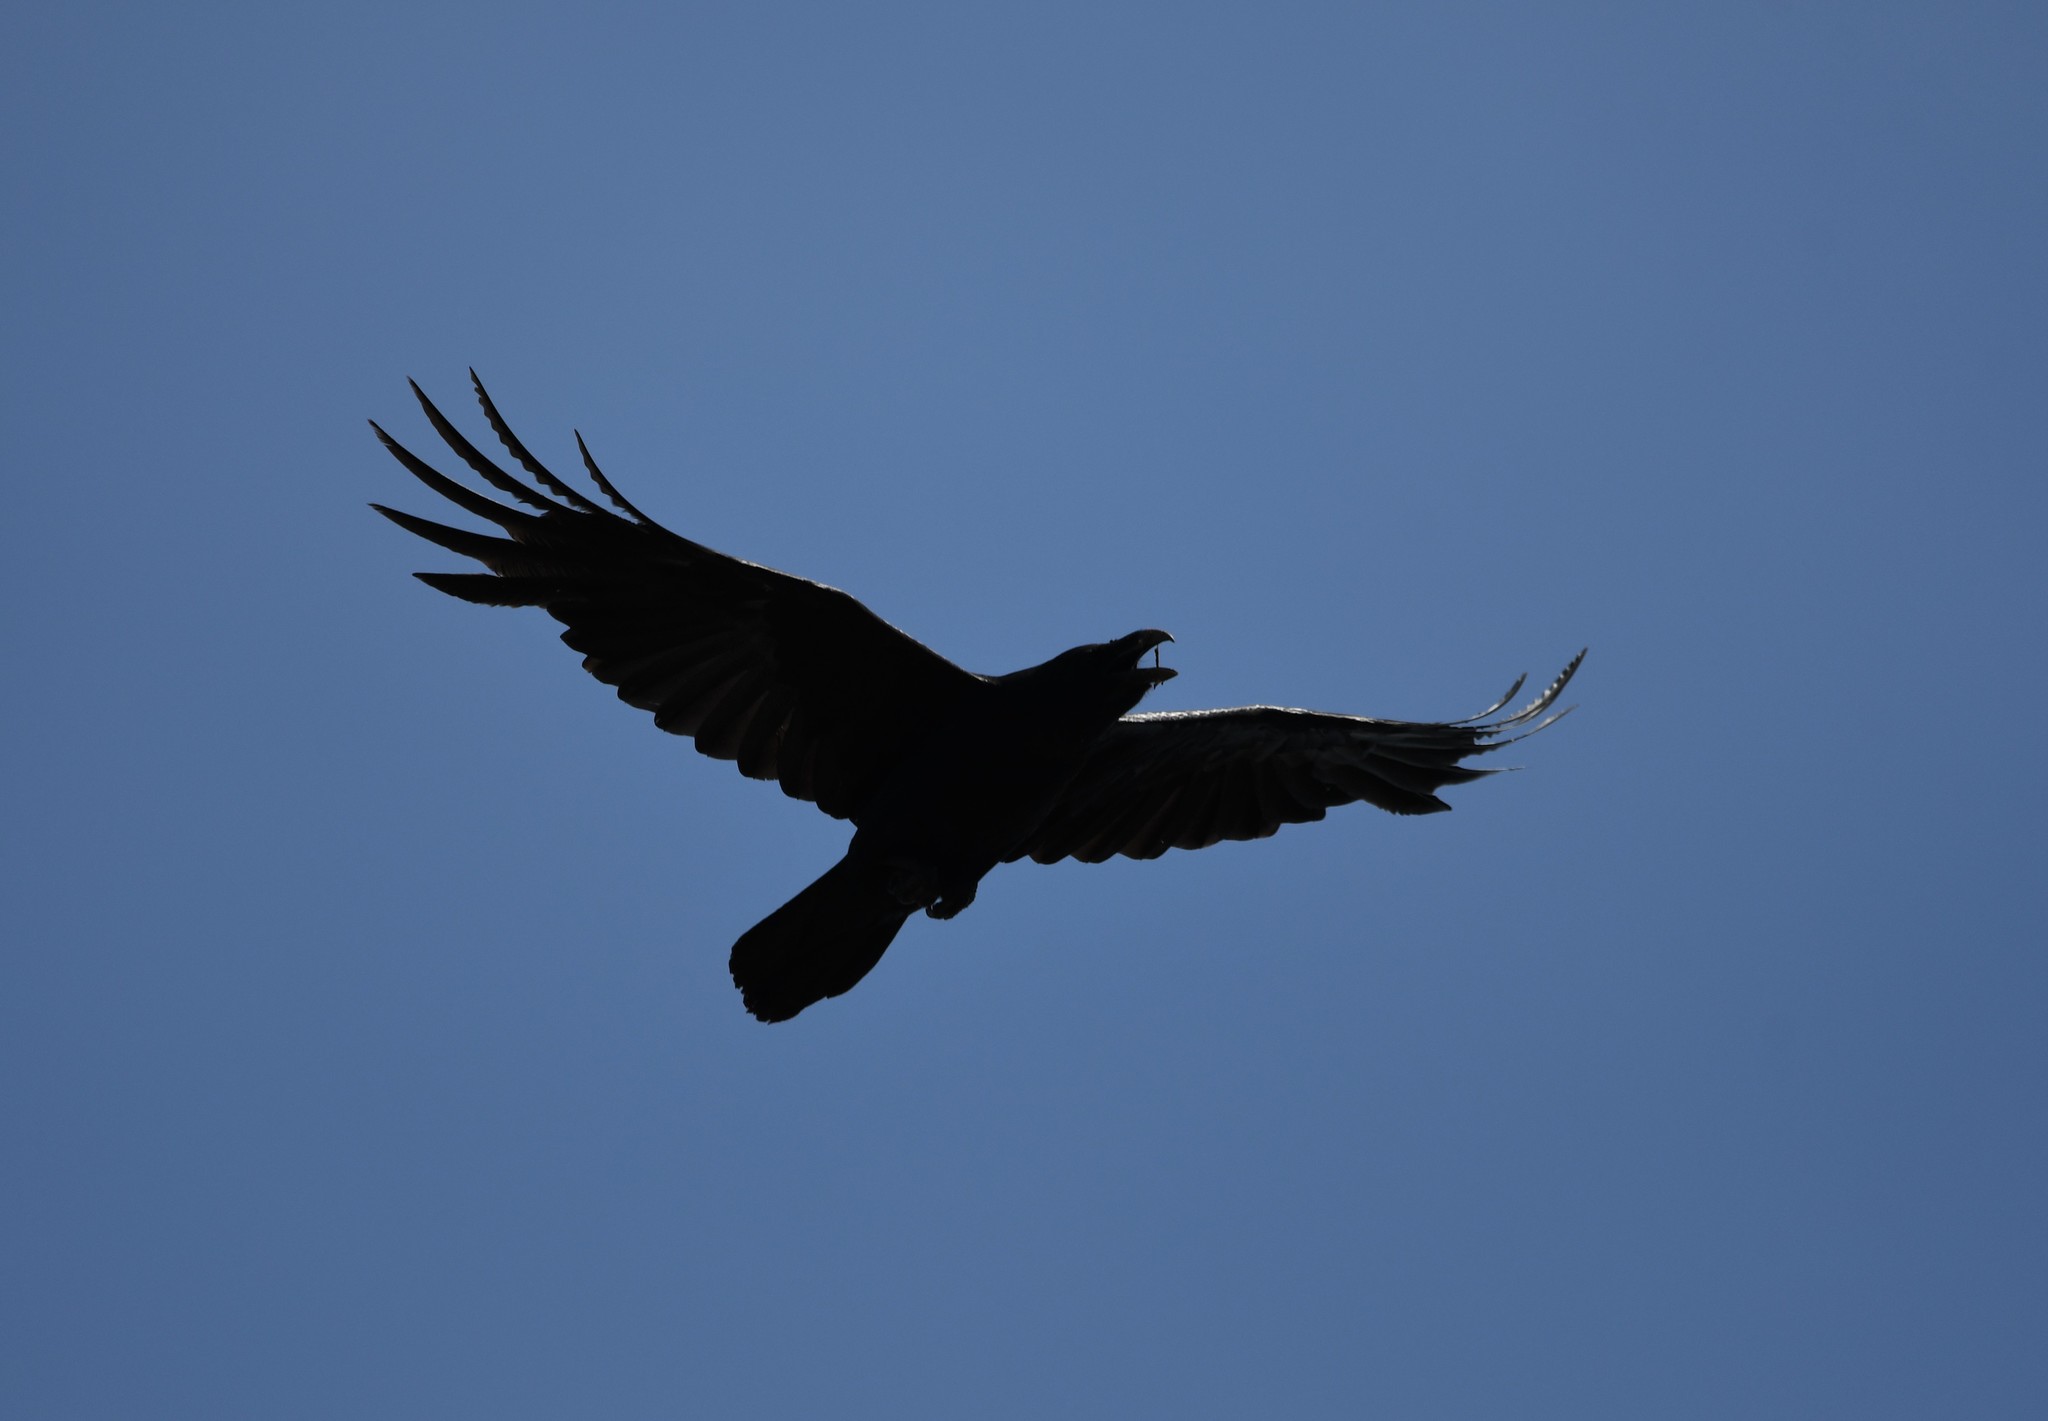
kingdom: Animalia
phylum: Chordata
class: Aves
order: Passeriformes
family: Corvidae
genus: Corvus
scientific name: Corvus corax
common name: Common raven
